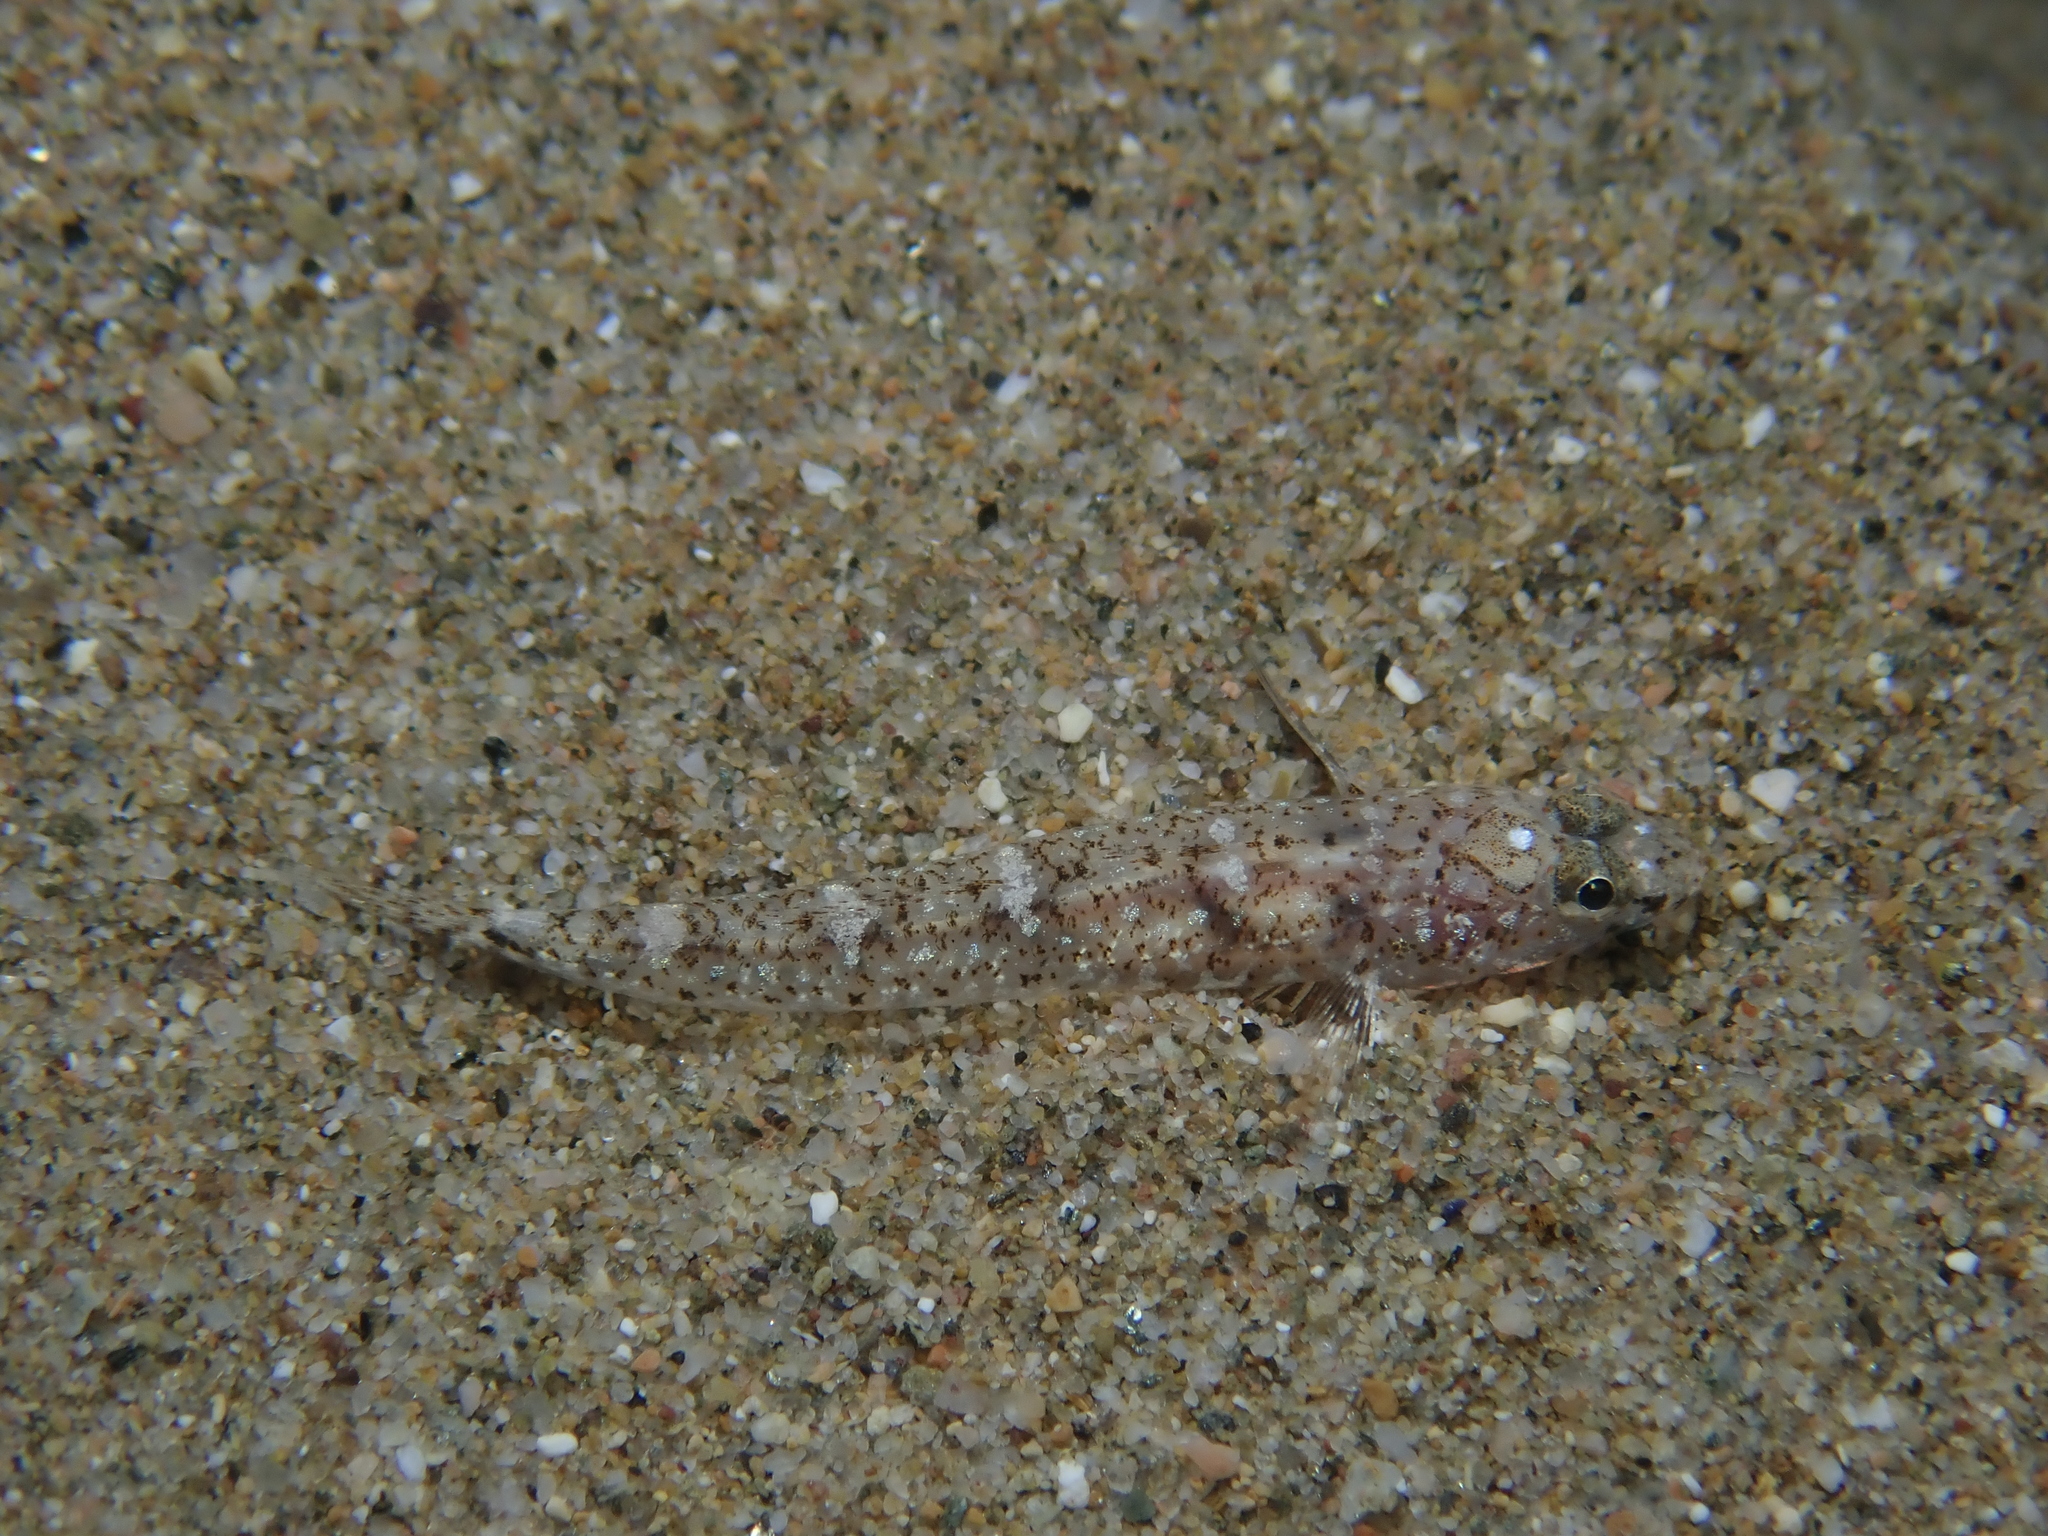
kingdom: Animalia
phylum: Chordata
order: Perciformes
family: Gobiidae
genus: Pomatoschistus
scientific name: Pomatoschistus marmoratus
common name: Marbled goby
